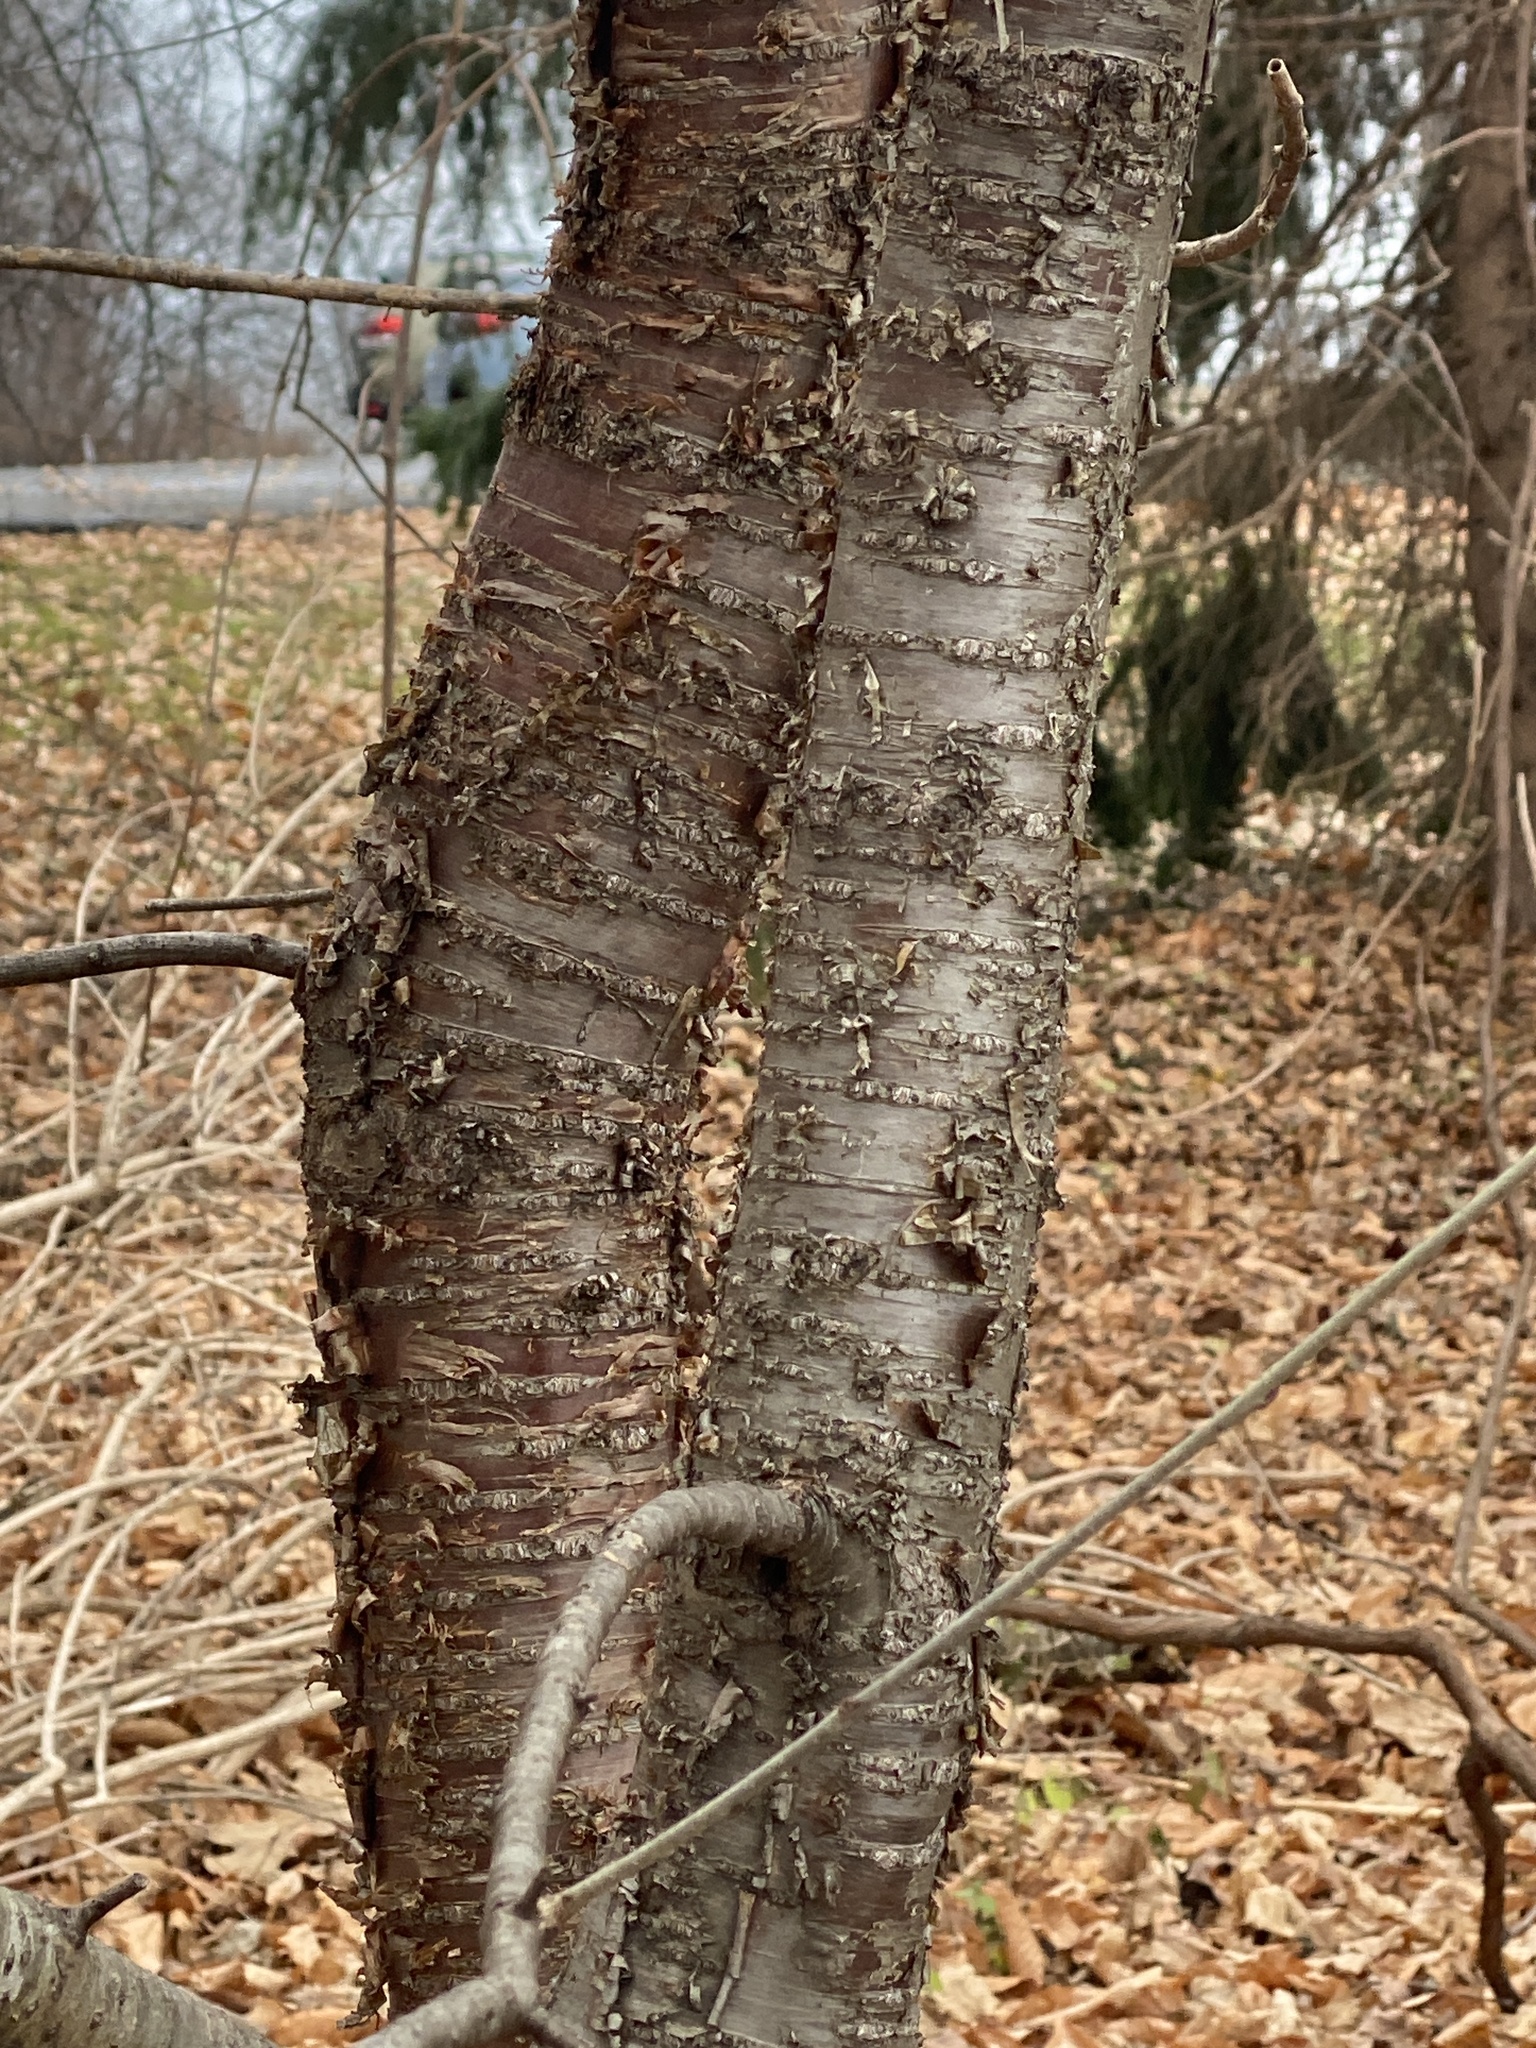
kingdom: Plantae
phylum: Tracheophyta
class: Magnoliopsida
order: Rosales
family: Rhamnaceae
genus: Rhamnus
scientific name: Rhamnus cathartica
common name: Common buckthorn
